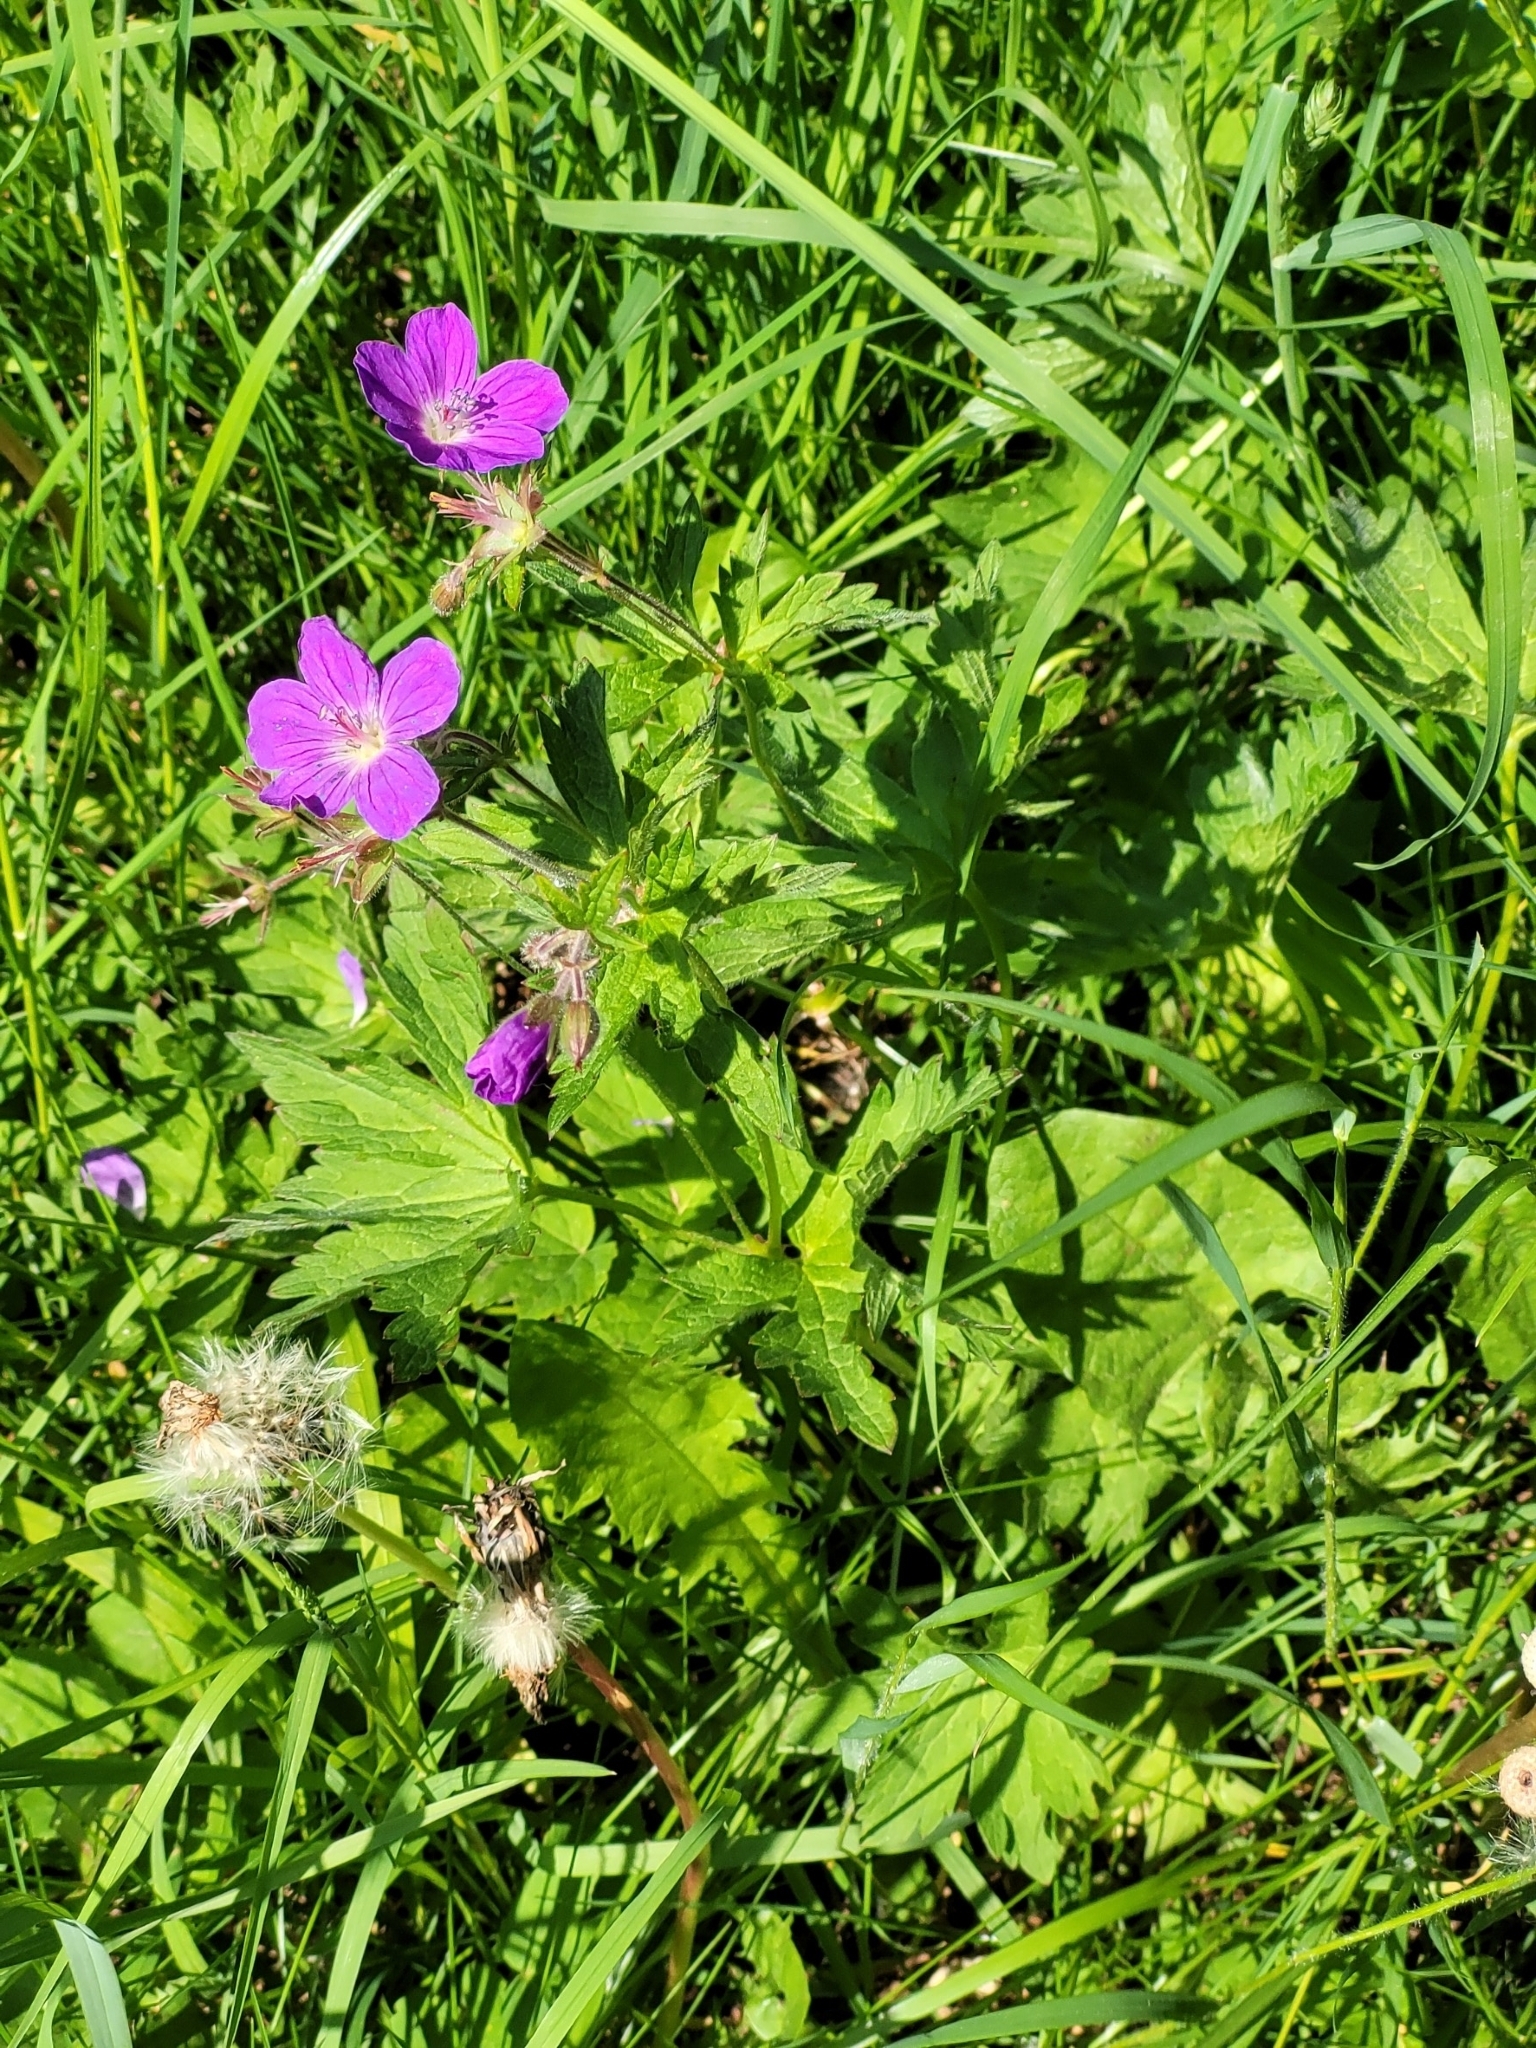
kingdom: Plantae
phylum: Tracheophyta
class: Magnoliopsida
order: Geraniales
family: Geraniaceae
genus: Geranium
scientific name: Geranium sylvaticum
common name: Wood crane's-bill
